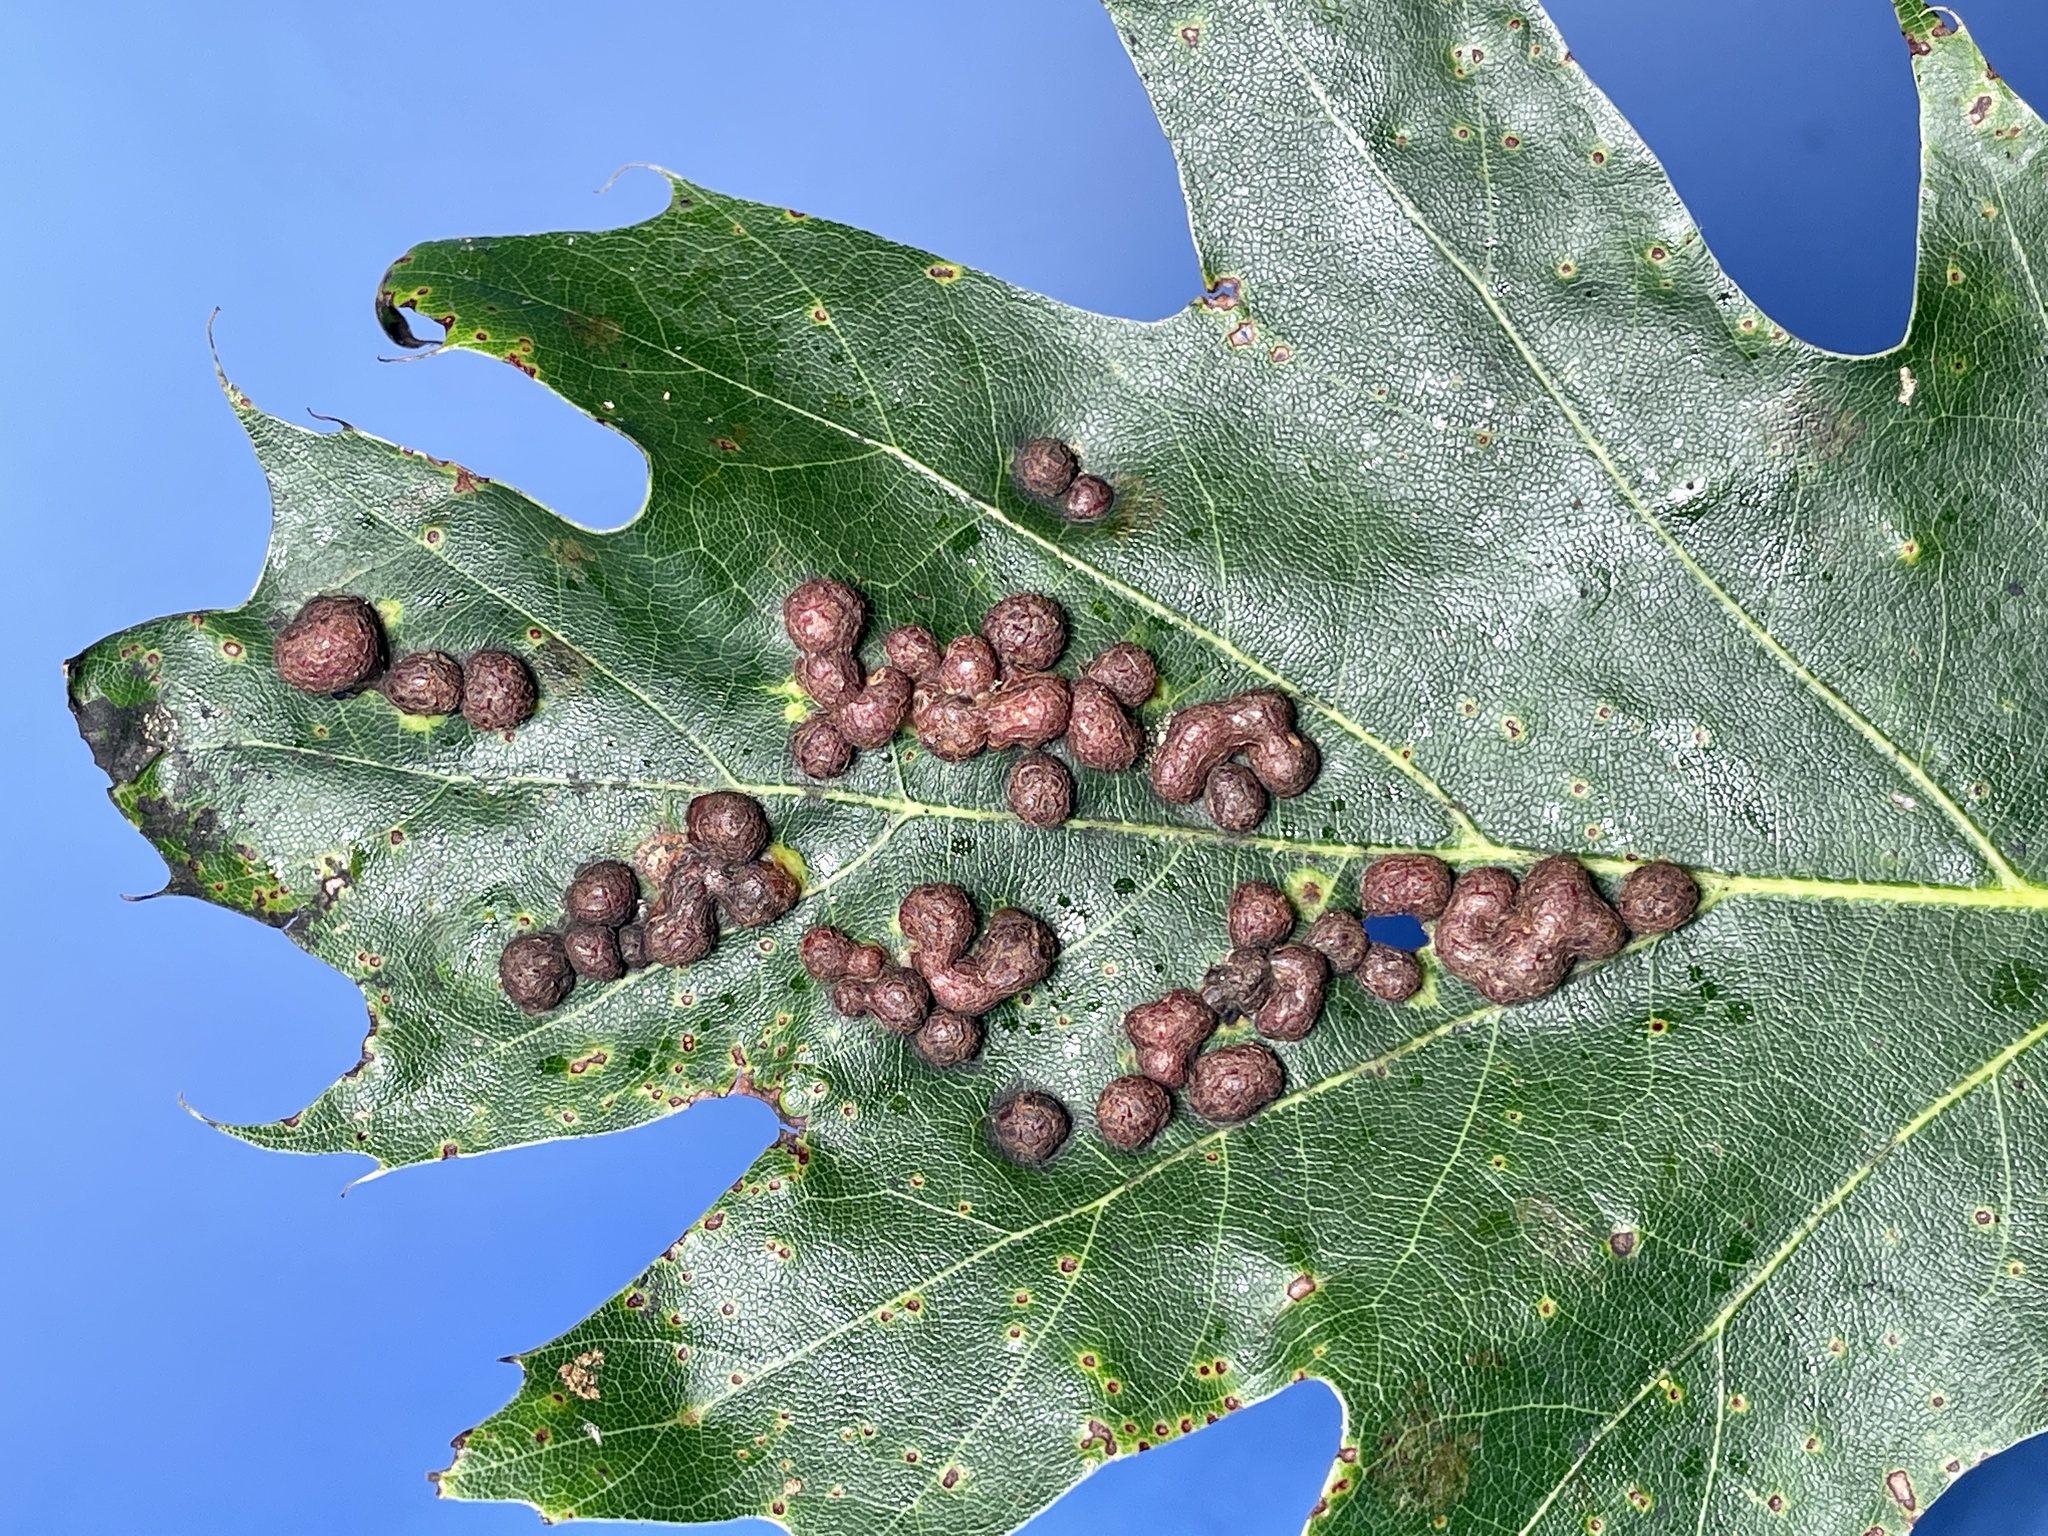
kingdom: Animalia
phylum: Arthropoda
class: Insecta
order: Diptera
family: Cecidomyiidae
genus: Polystepha
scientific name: Polystepha pilulae
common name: Oak leaf gall midge
